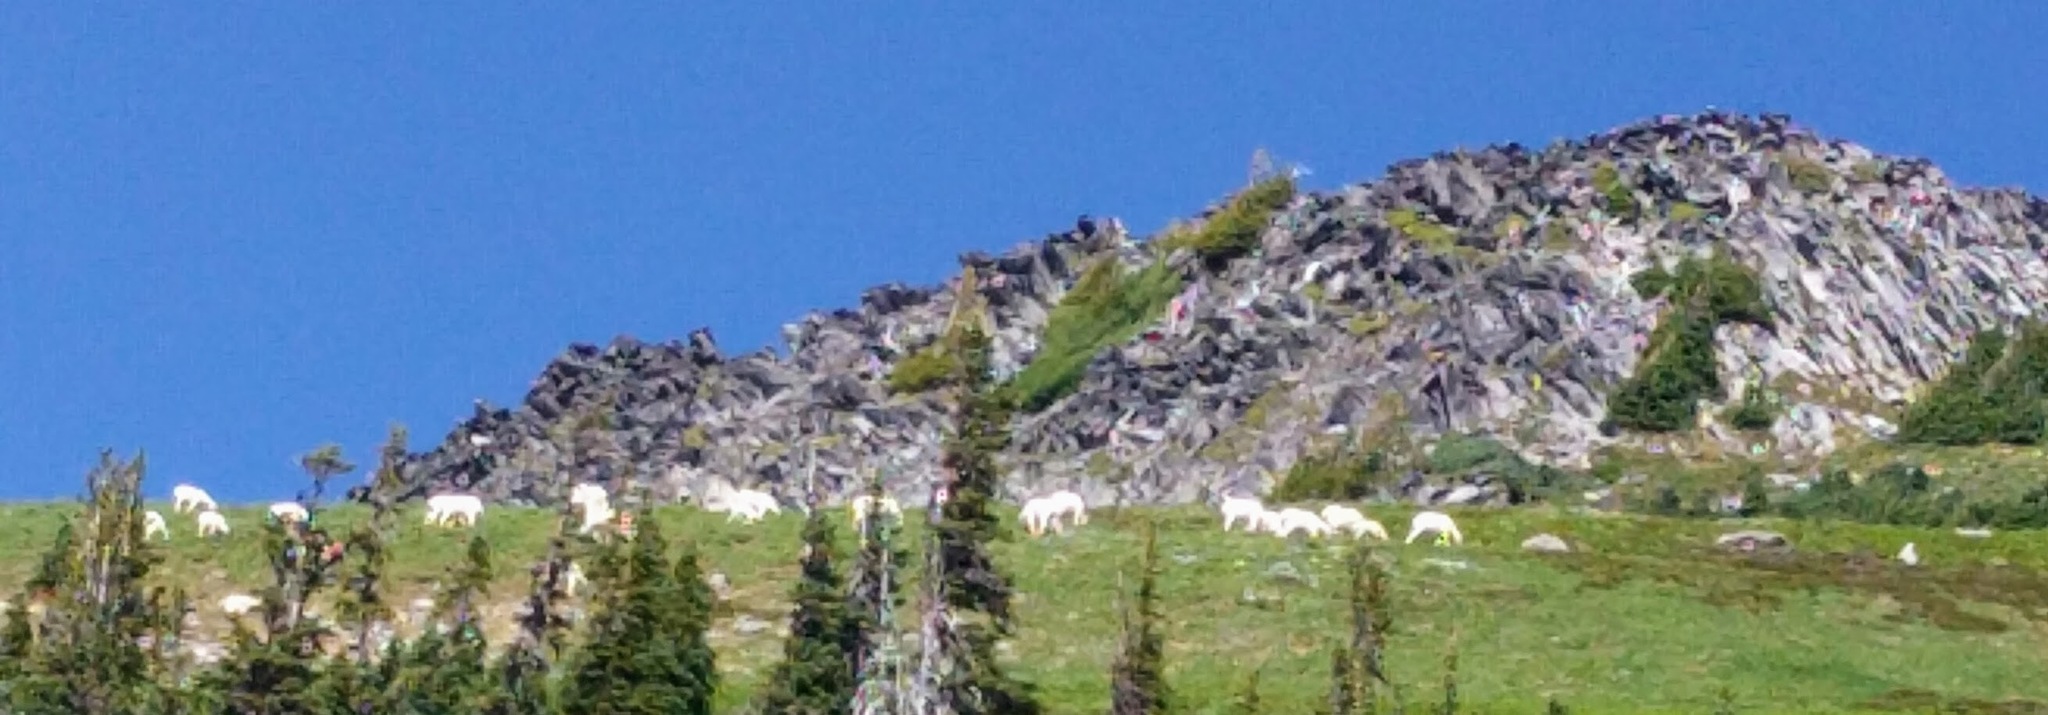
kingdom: Animalia
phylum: Chordata
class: Mammalia
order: Artiodactyla
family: Bovidae
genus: Oreamnos
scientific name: Oreamnos americanus
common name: Mountain goat
